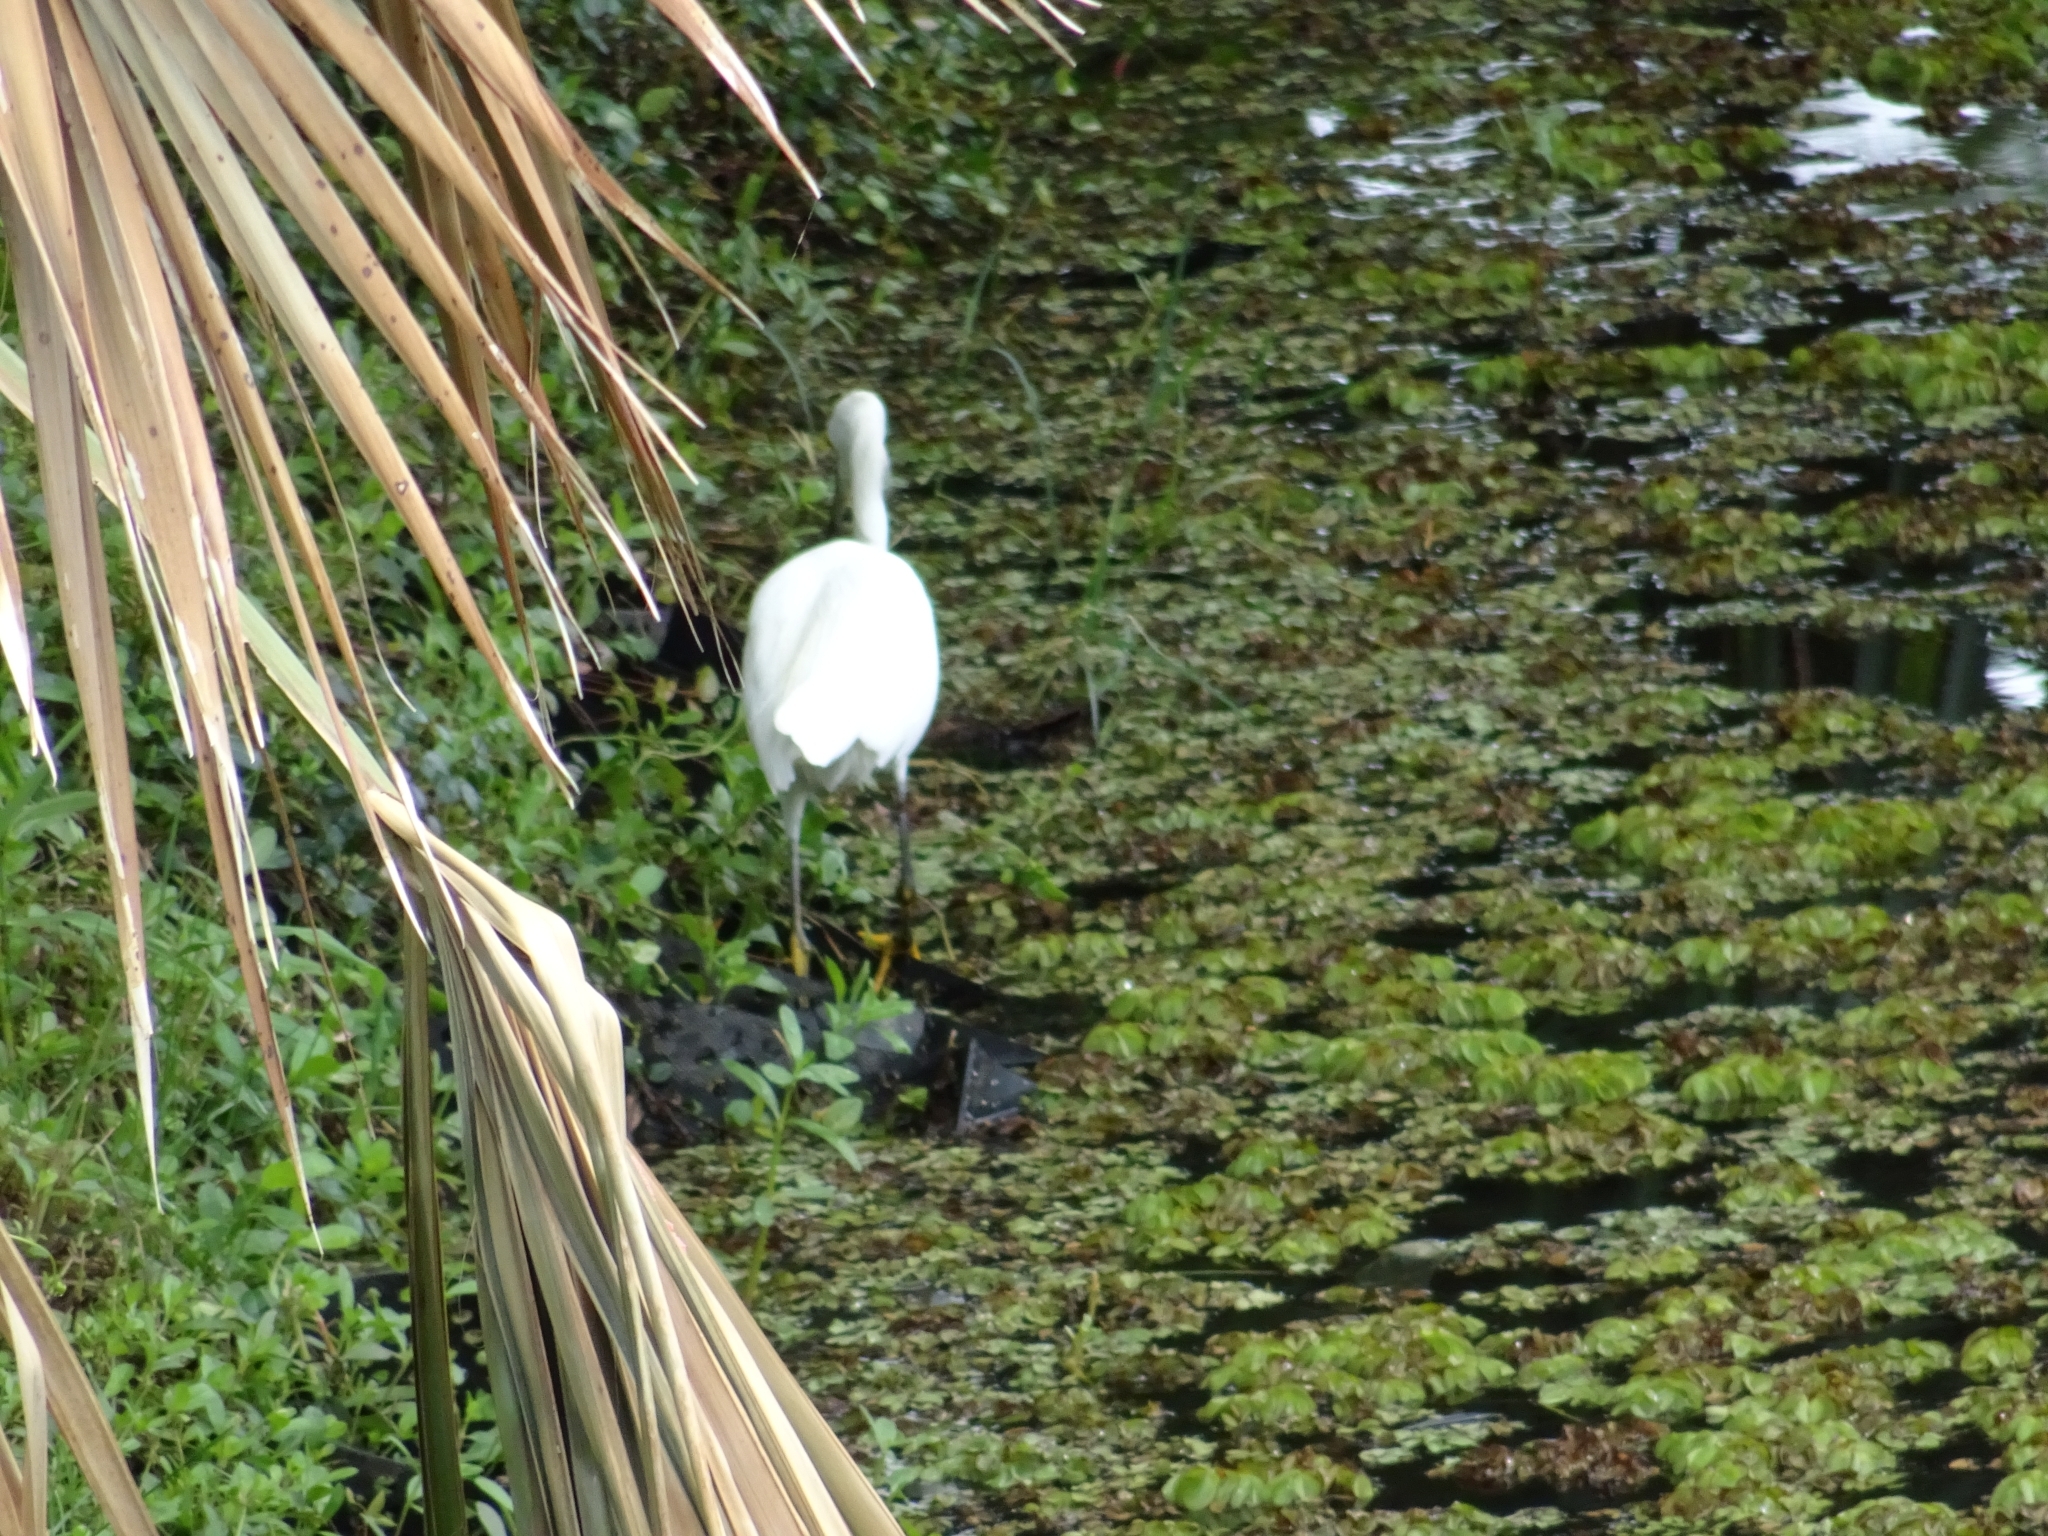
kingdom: Animalia
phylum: Chordata
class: Aves
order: Pelecaniformes
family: Ardeidae
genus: Egretta
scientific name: Egretta thula
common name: Snowy egret
